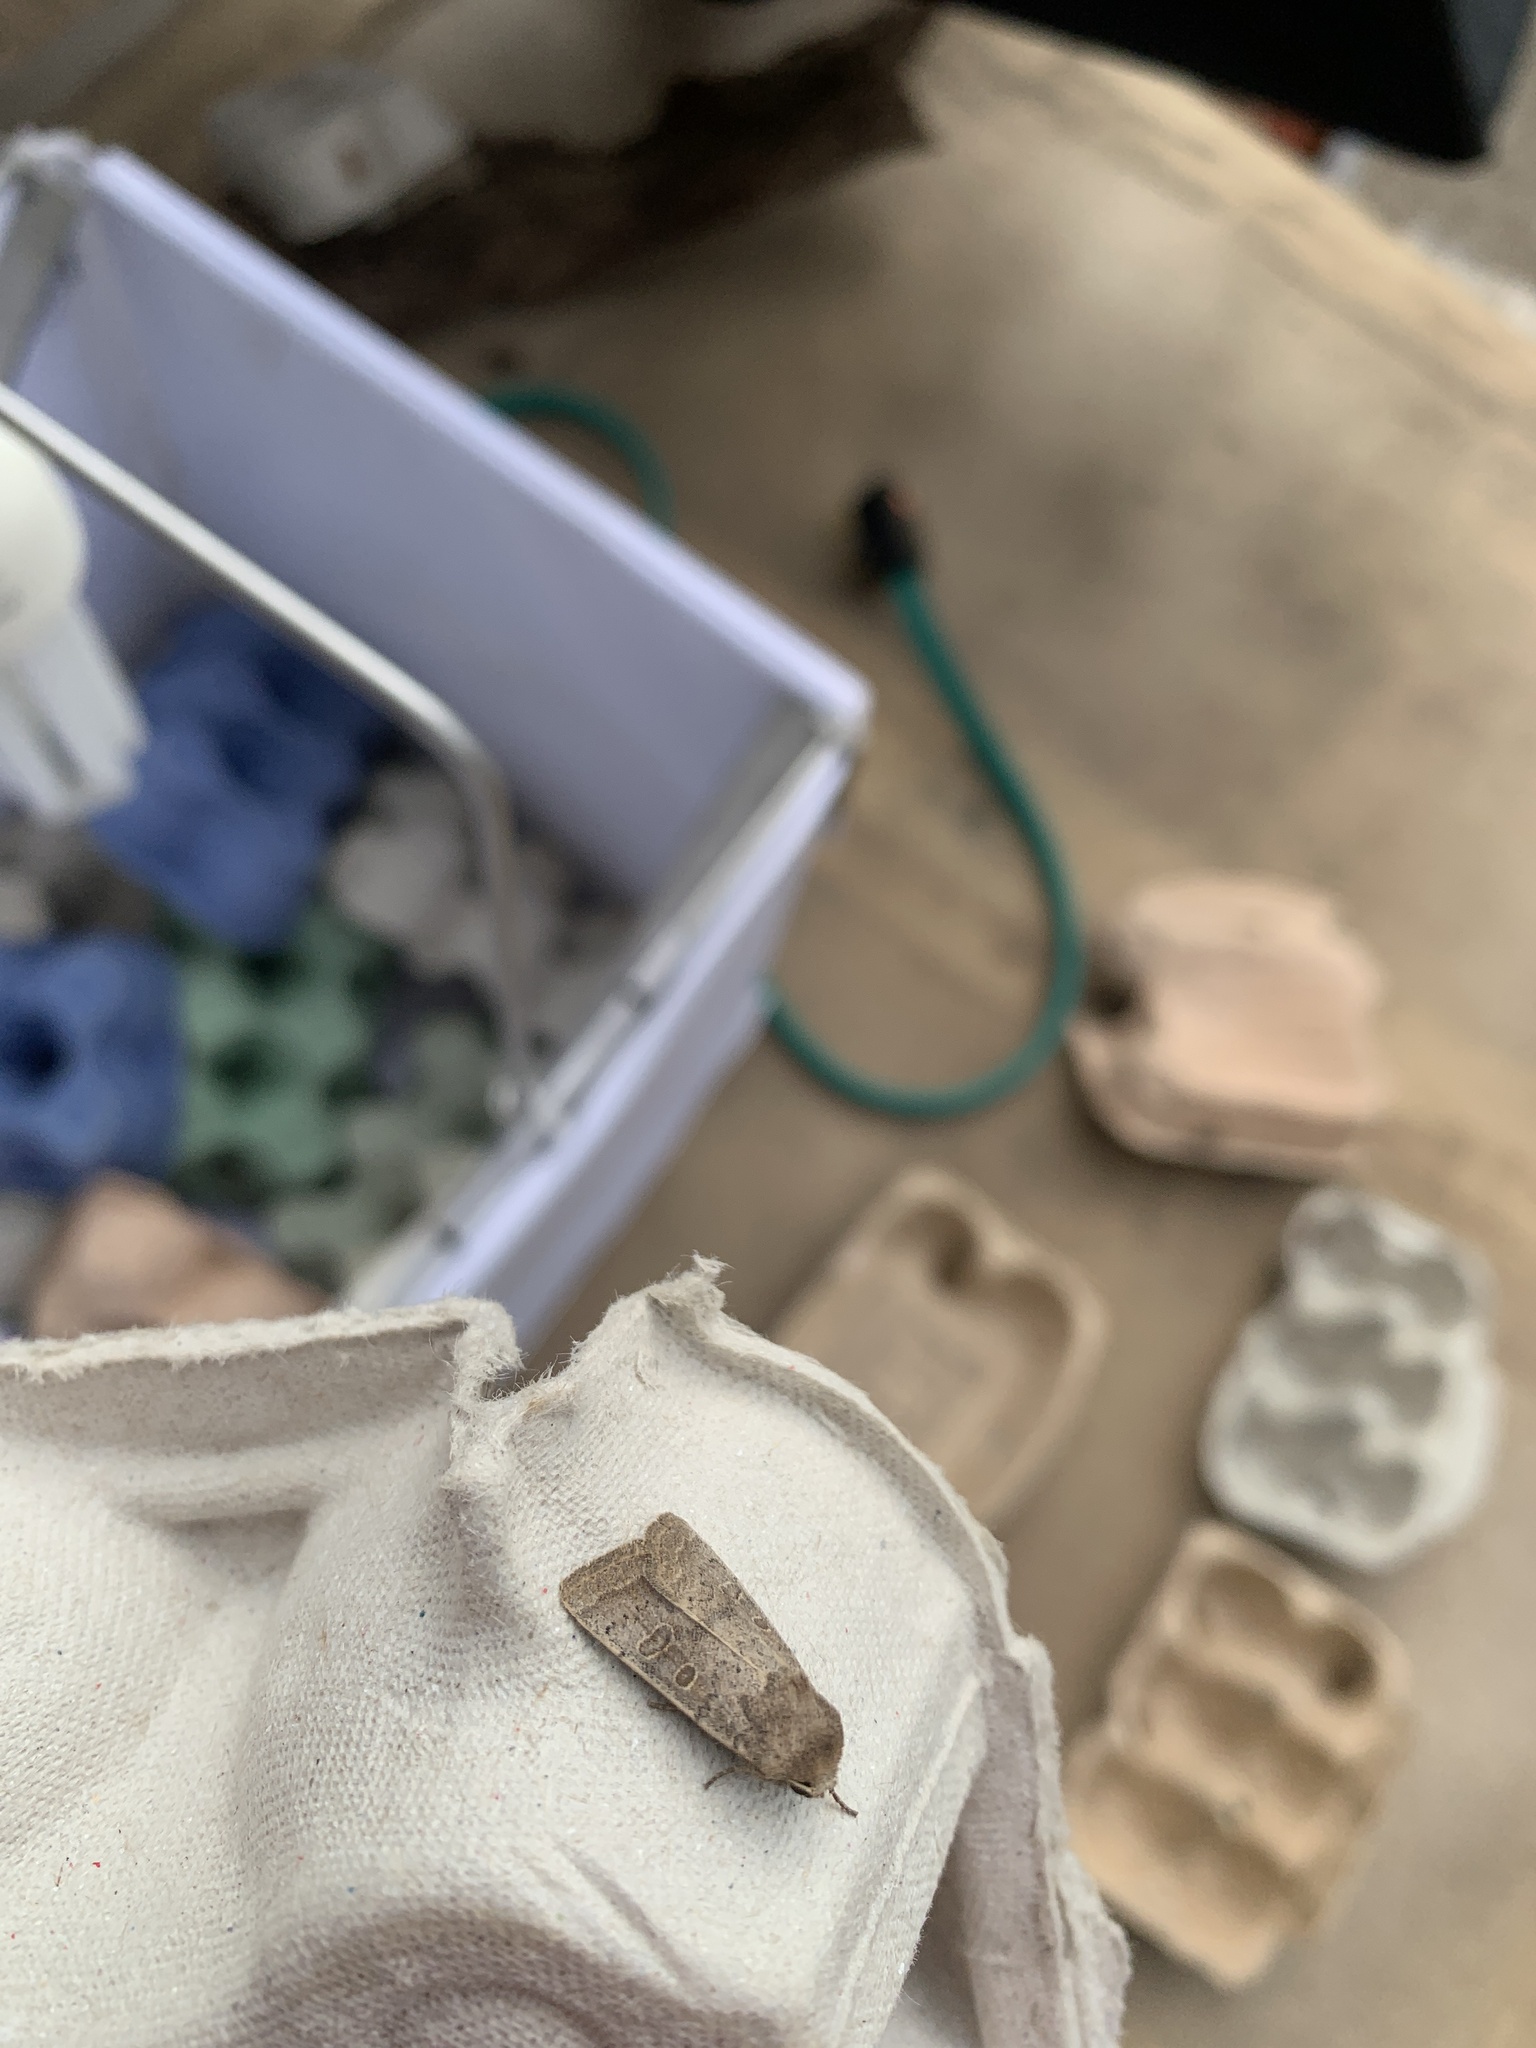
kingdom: Animalia
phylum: Arthropoda
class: Insecta
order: Lepidoptera
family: Noctuidae
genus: Hoplodrina
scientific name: Hoplodrina blanda
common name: Rustic
